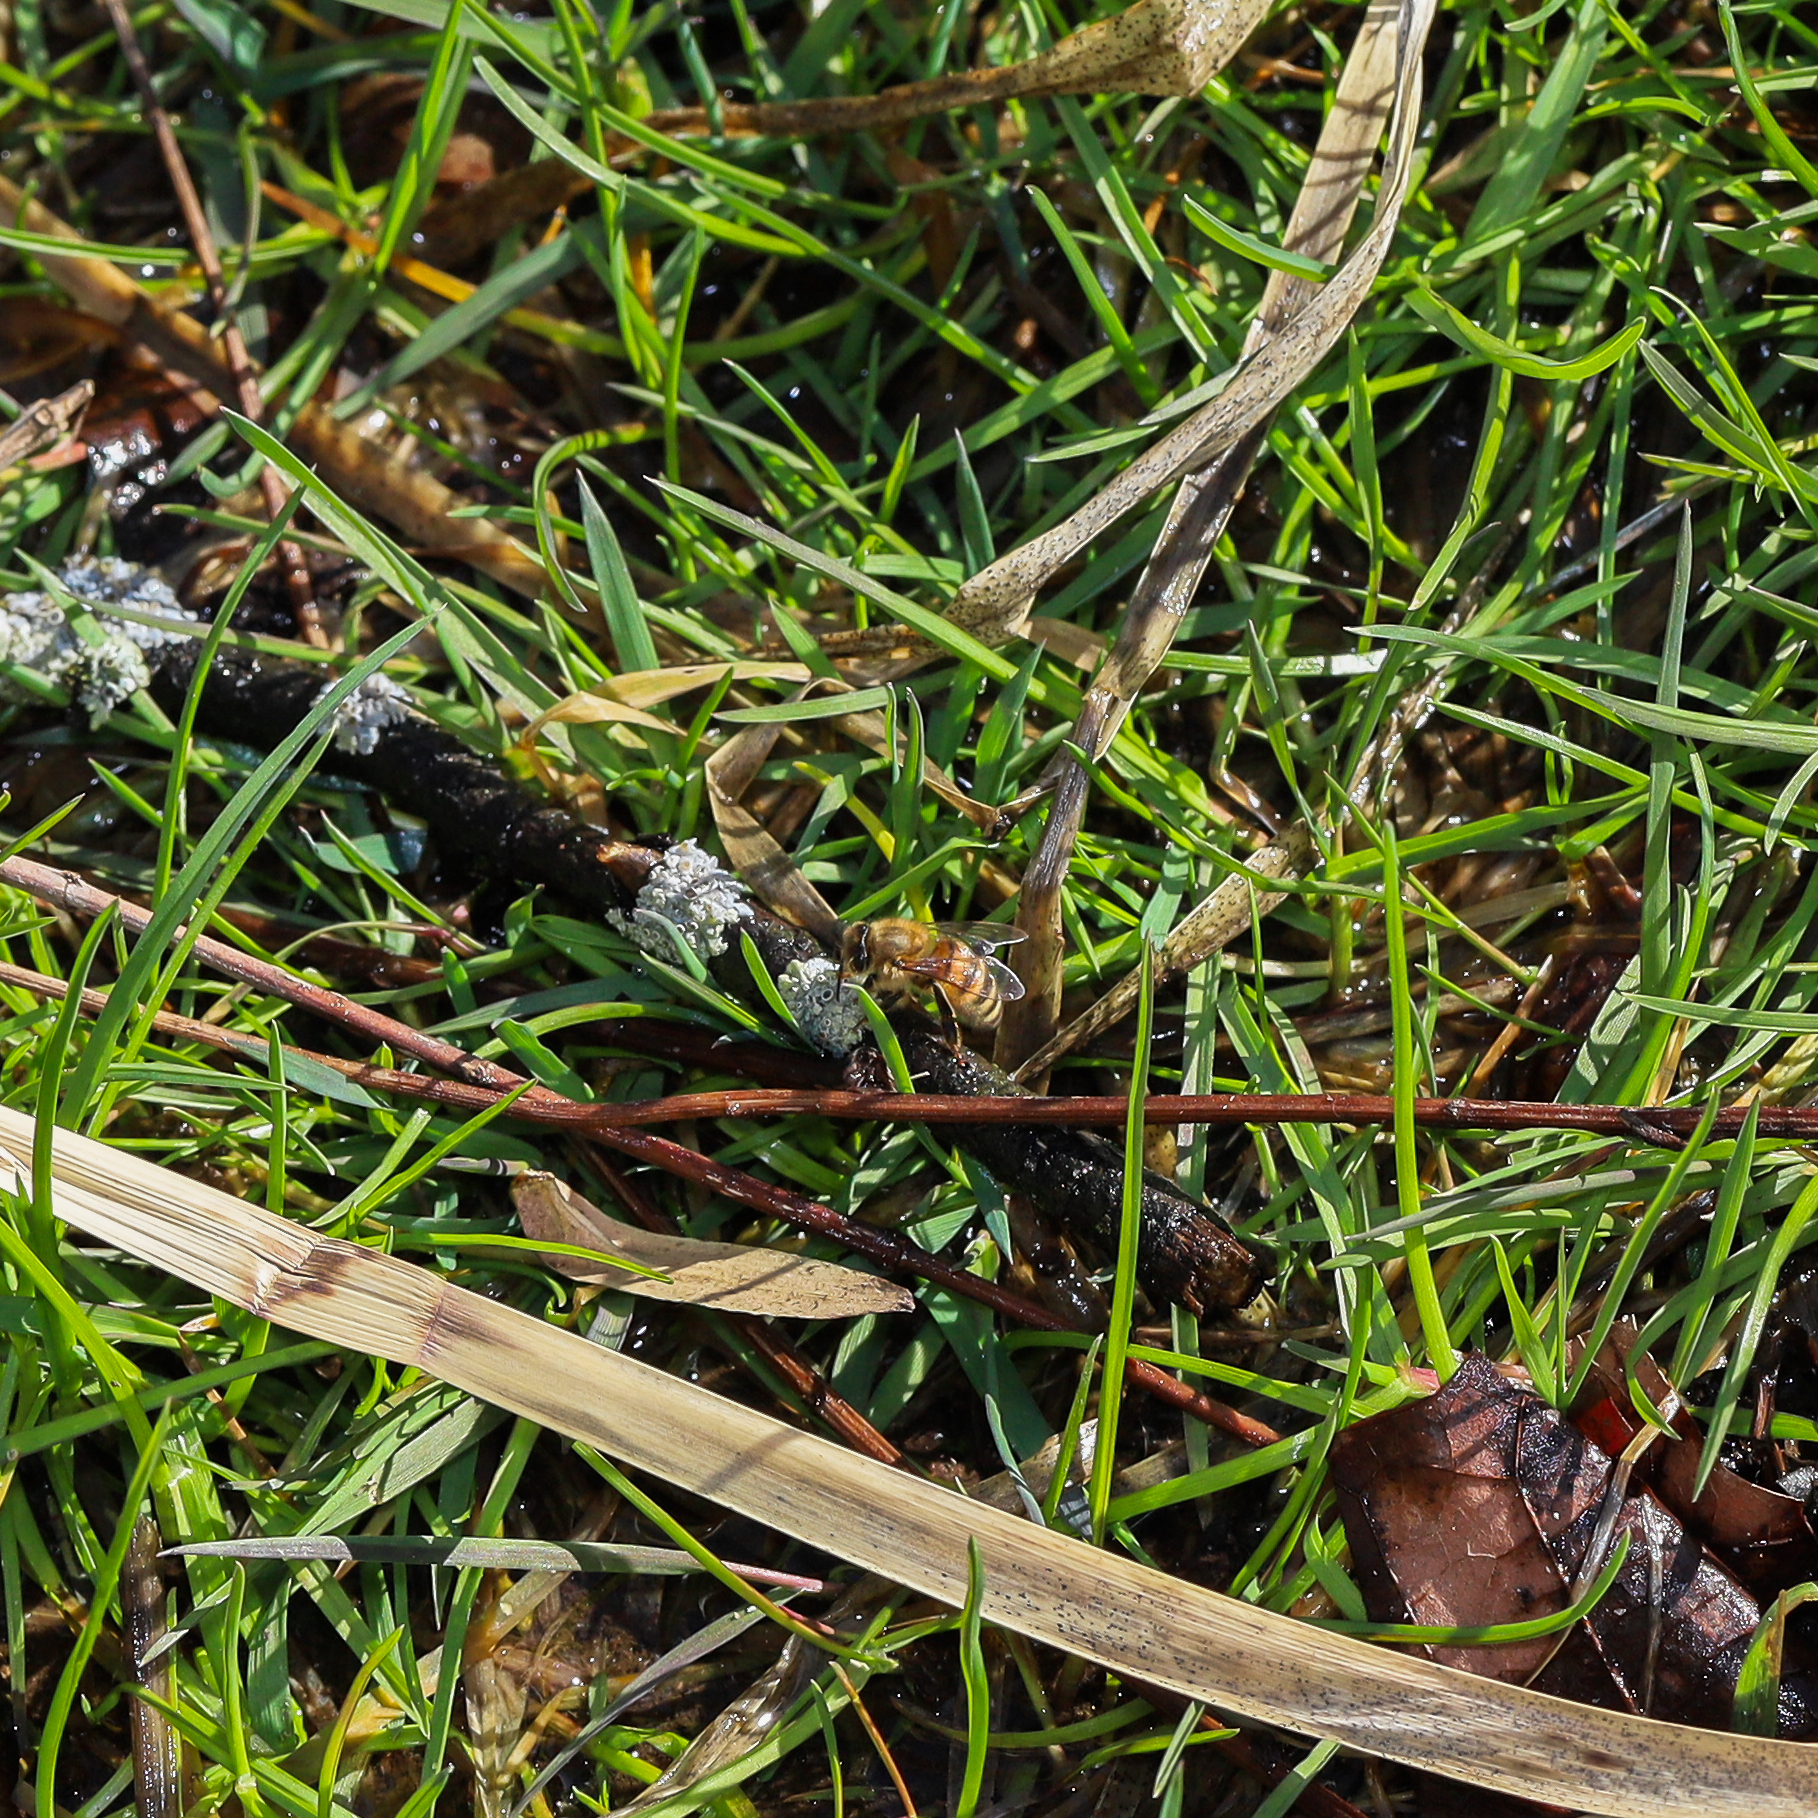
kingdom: Animalia
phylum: Arthropoda
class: Insecta
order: Hymenoptera
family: Apidae
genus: Apis
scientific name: Apis mellifera
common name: Honey bee
